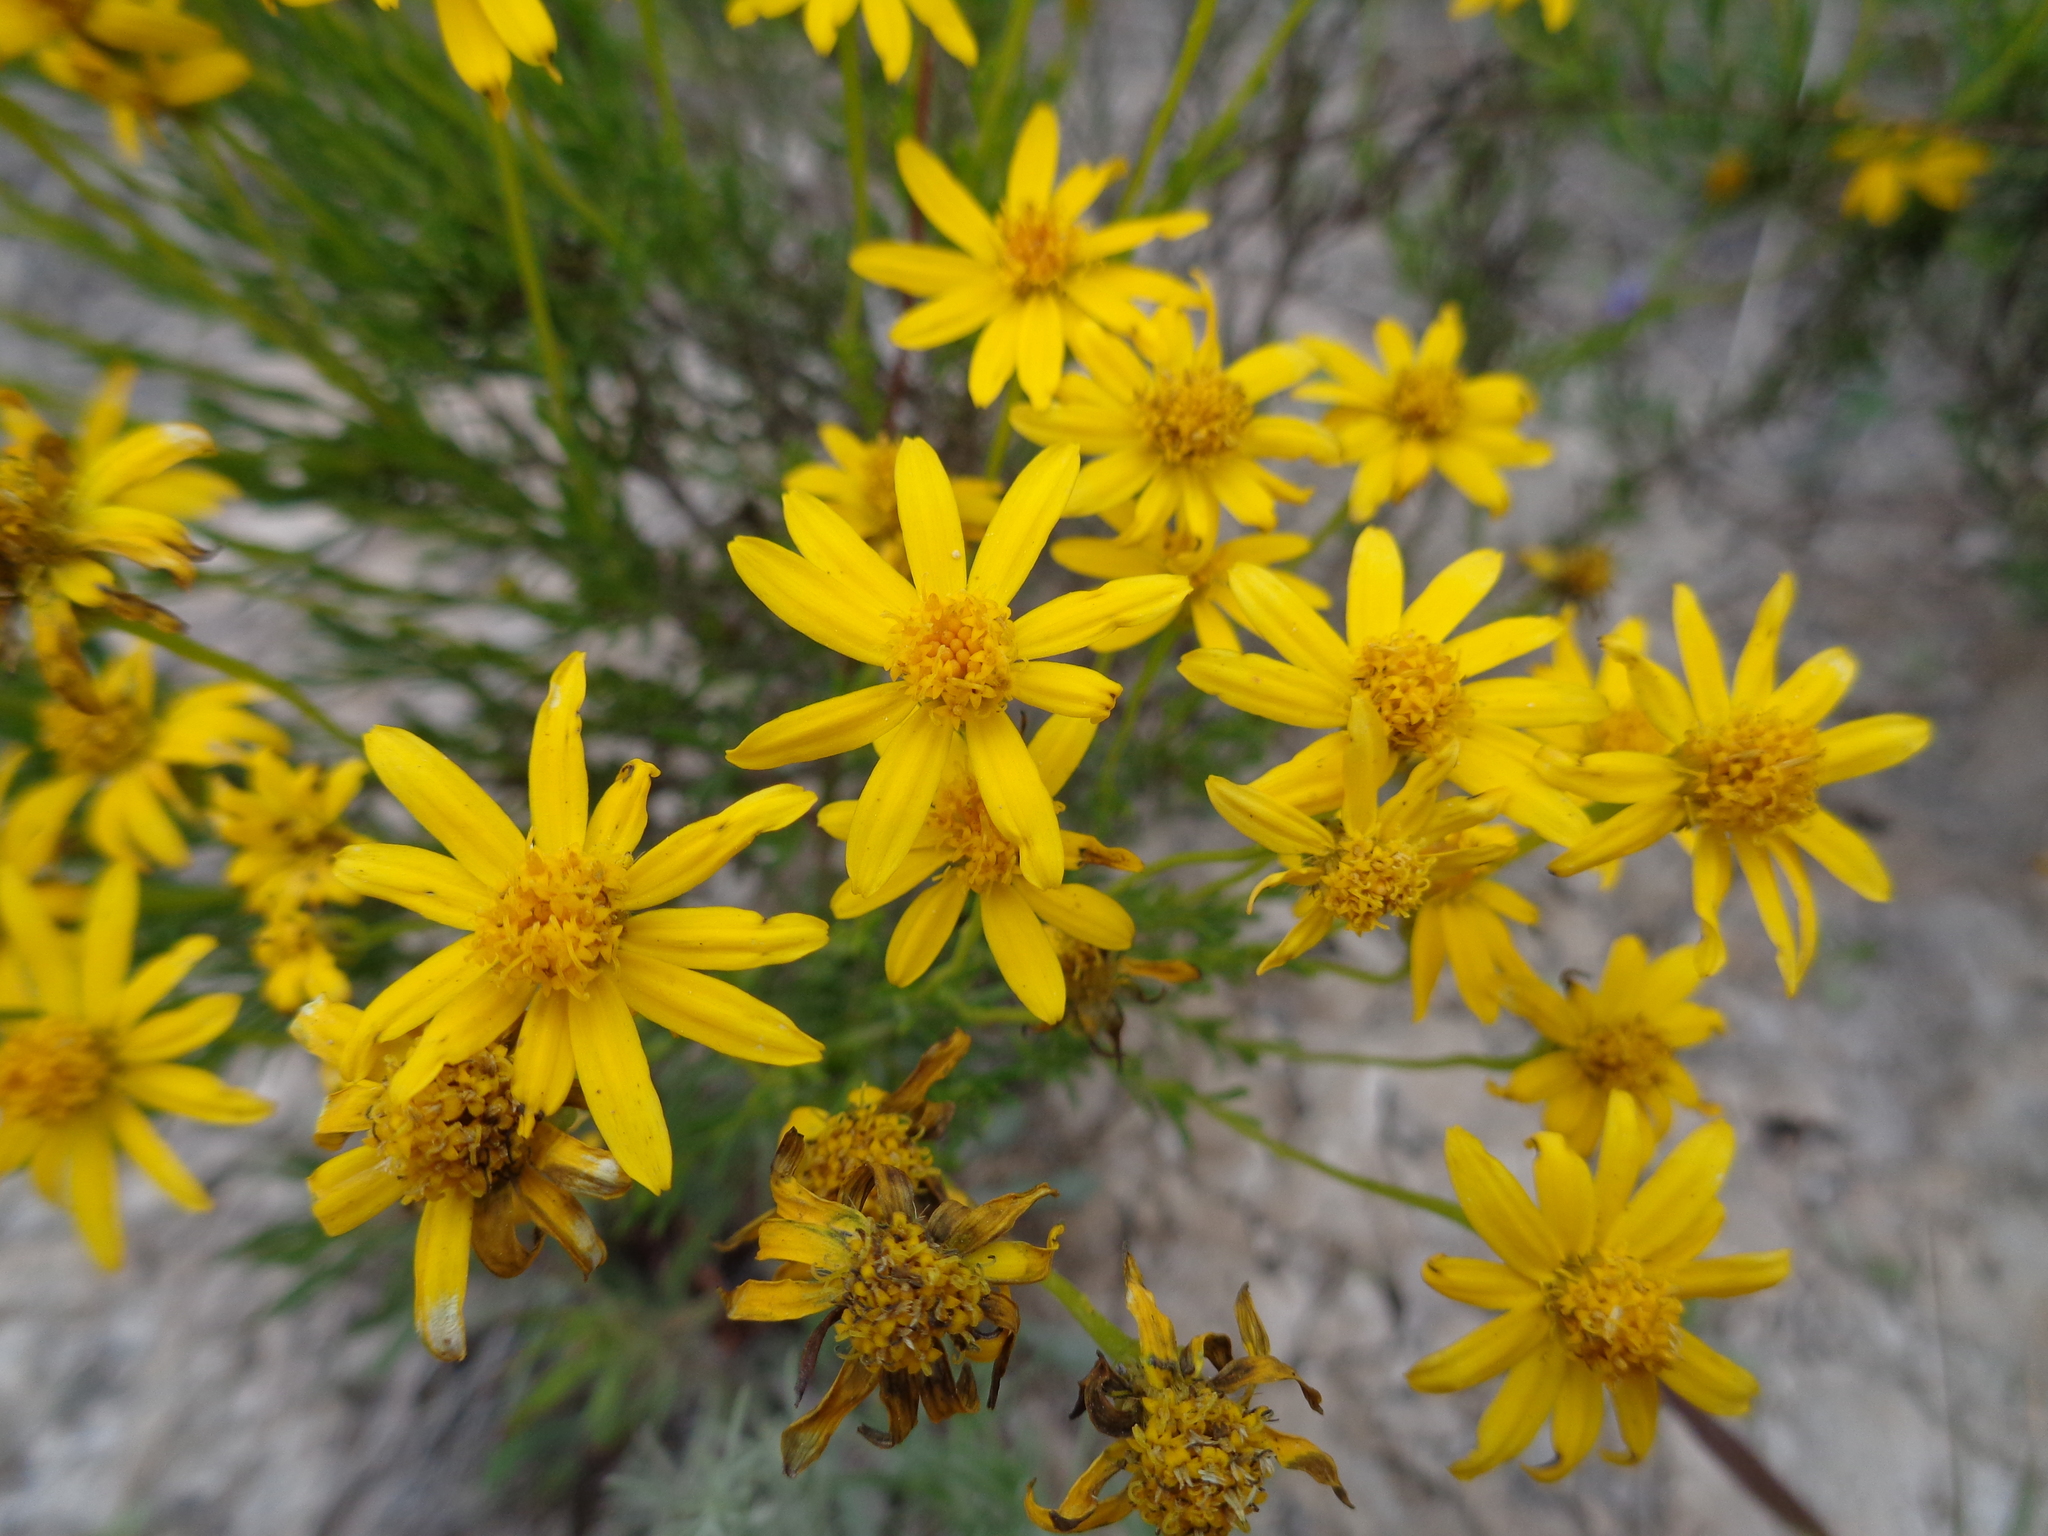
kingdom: Plantae
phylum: Tracheophyta
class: Magnoliopsida
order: Asterales
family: Asteraceae
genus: Chrysactinia
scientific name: Chrysactinia mexicana
